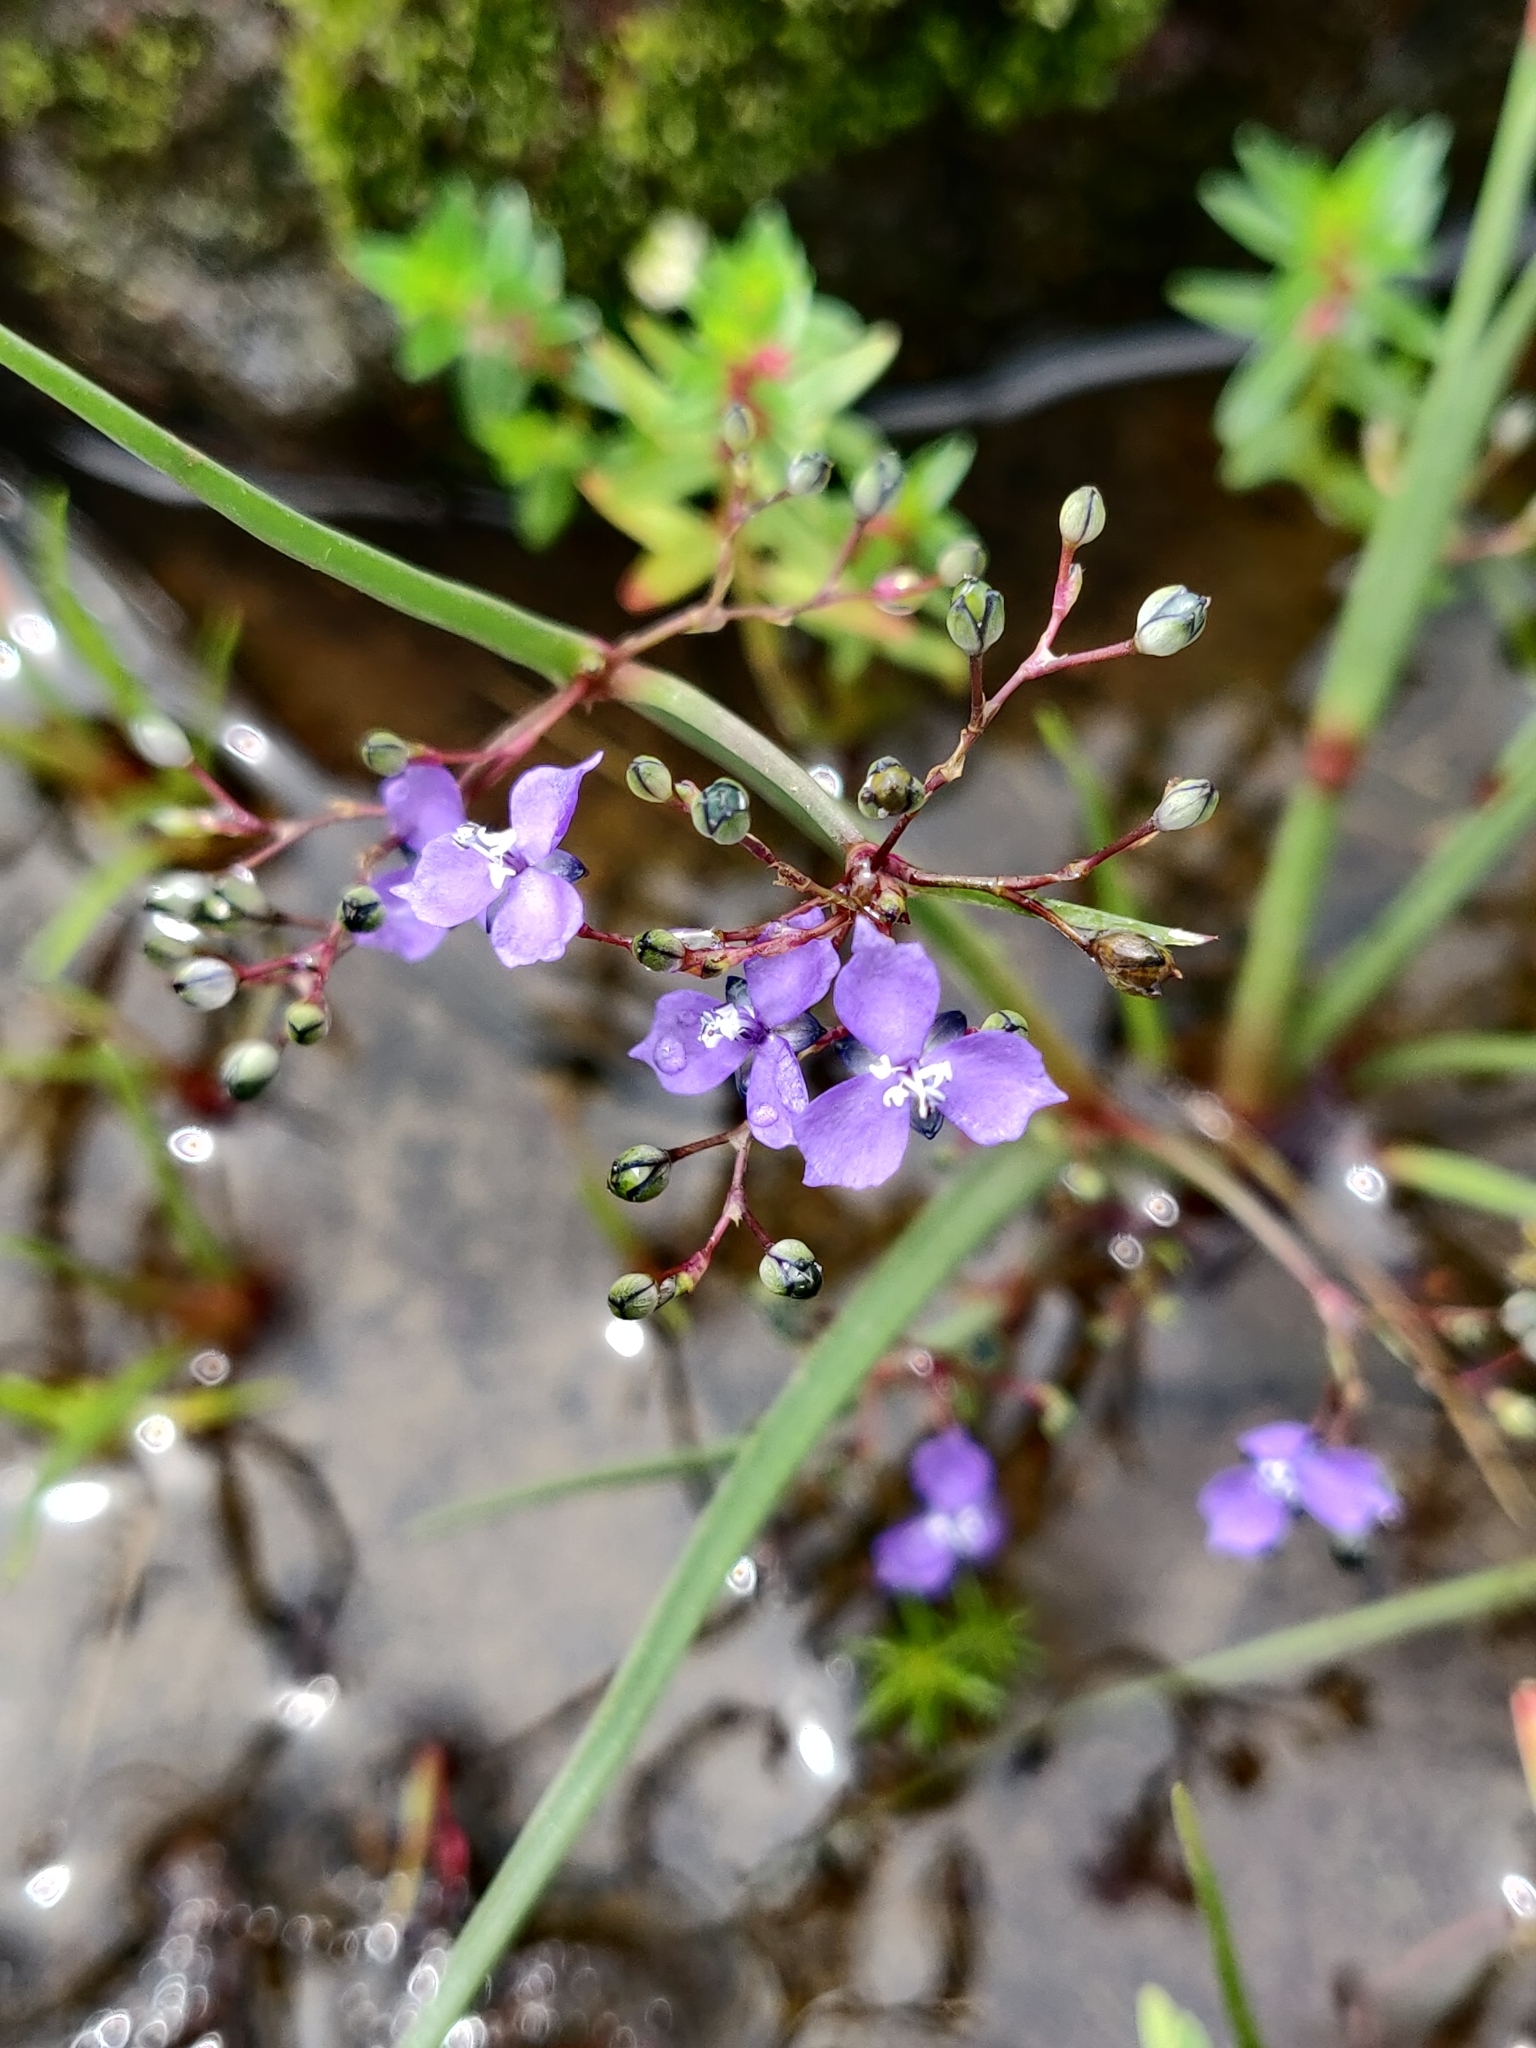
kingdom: Plantae
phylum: Tracheophyta
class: Liliopsida
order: Commelinales
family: Commelinaceae
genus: Murdannia
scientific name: Murdannia semiteres
